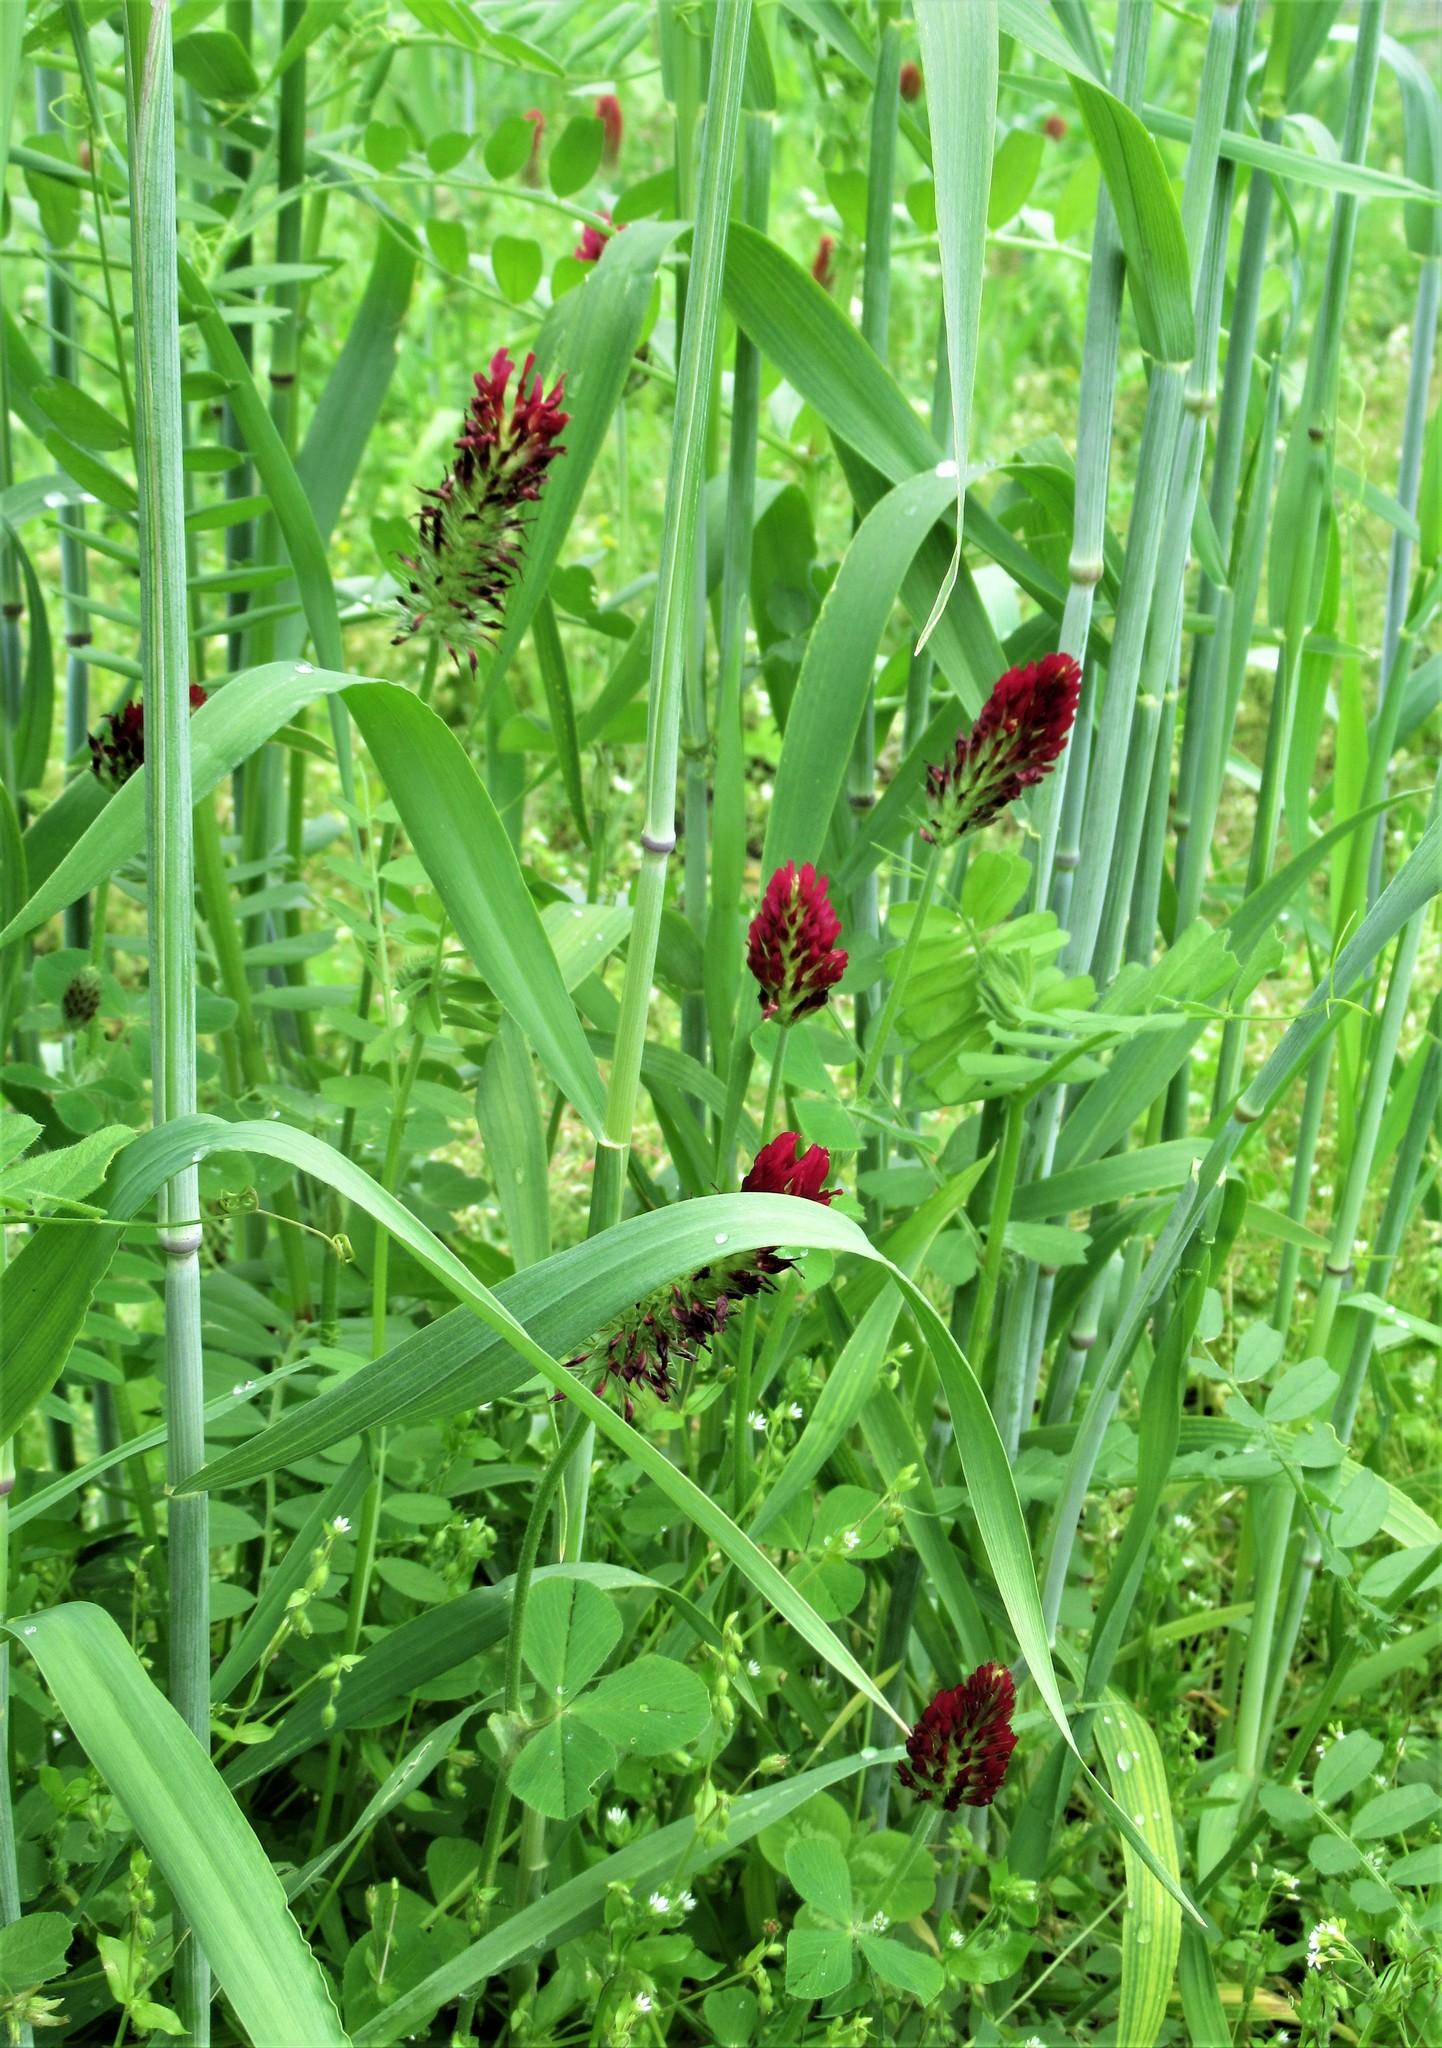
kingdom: Plantae
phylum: Tracheophyta
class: Magnoliopsida
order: Fabales
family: Fabaceae
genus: Trifolium
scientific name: Trifolium incarnatum
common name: Crimson clover
